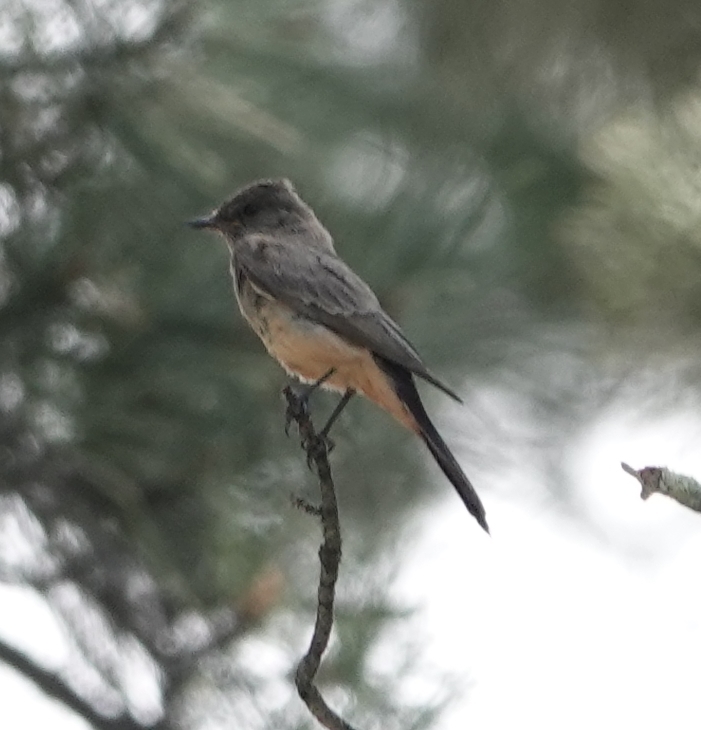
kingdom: Animalia
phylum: Chordata
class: Aves
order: Passeriformes
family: Tyrannidae
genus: Sayornis
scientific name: Sayornis saya
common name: Say's phoebe
